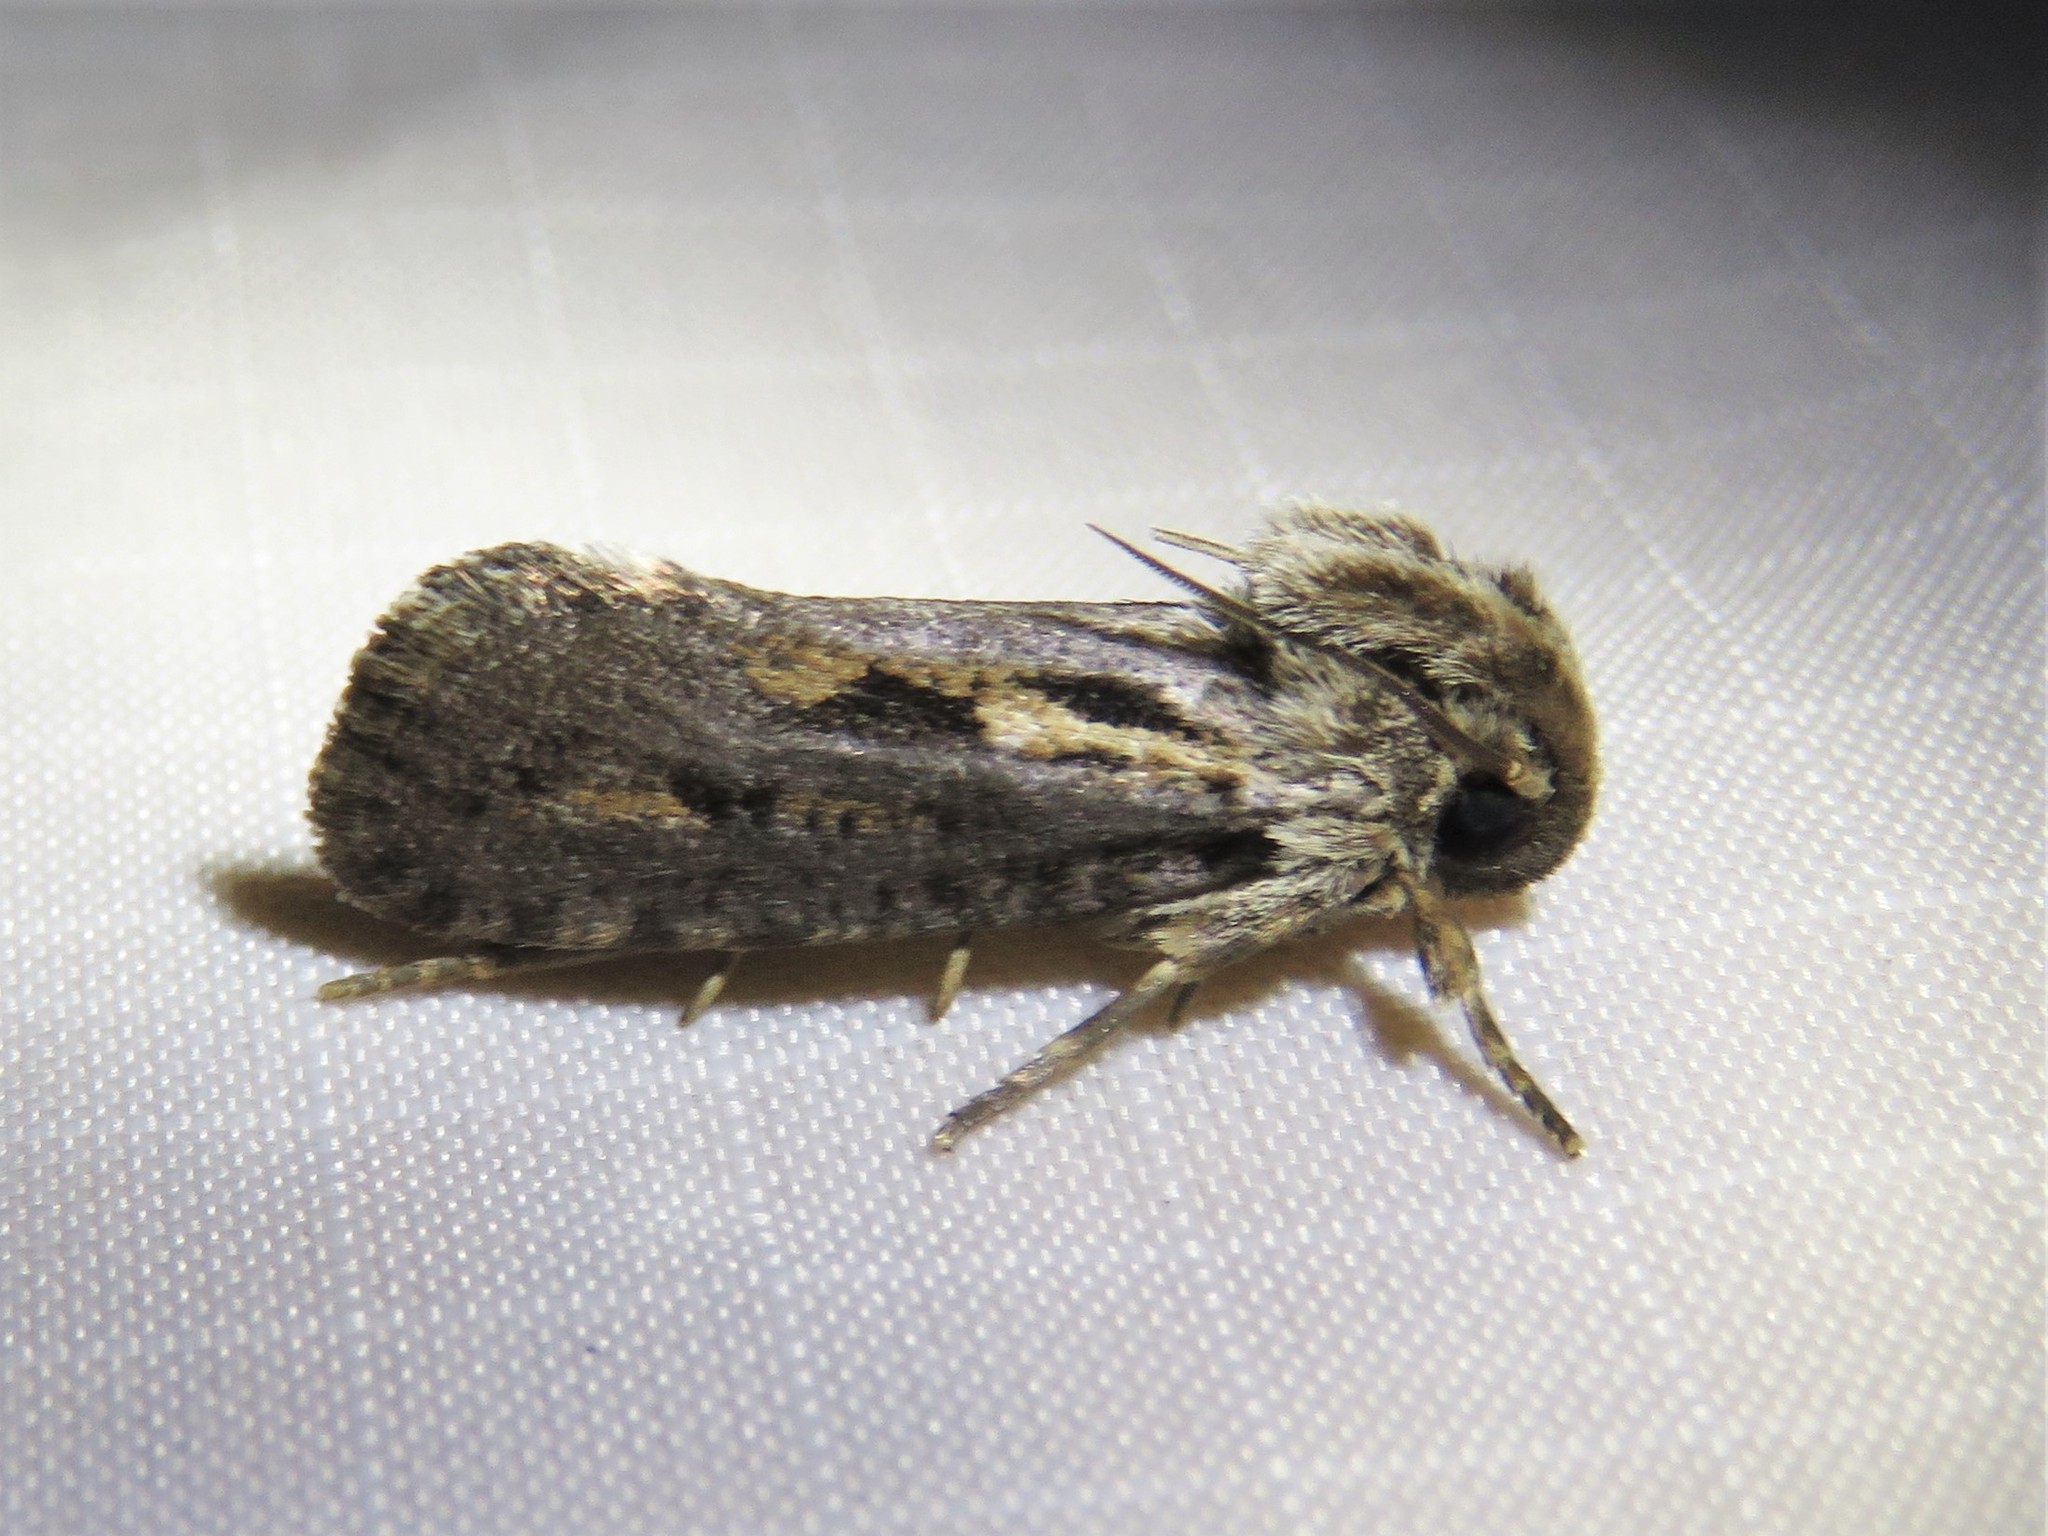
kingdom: Animalia
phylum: Arthropoda
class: Insecta
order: Lepidoptera
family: Tineidae
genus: Acrolophus
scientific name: Acrolophus popeanella
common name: Clemens' grass tubeworm moth
